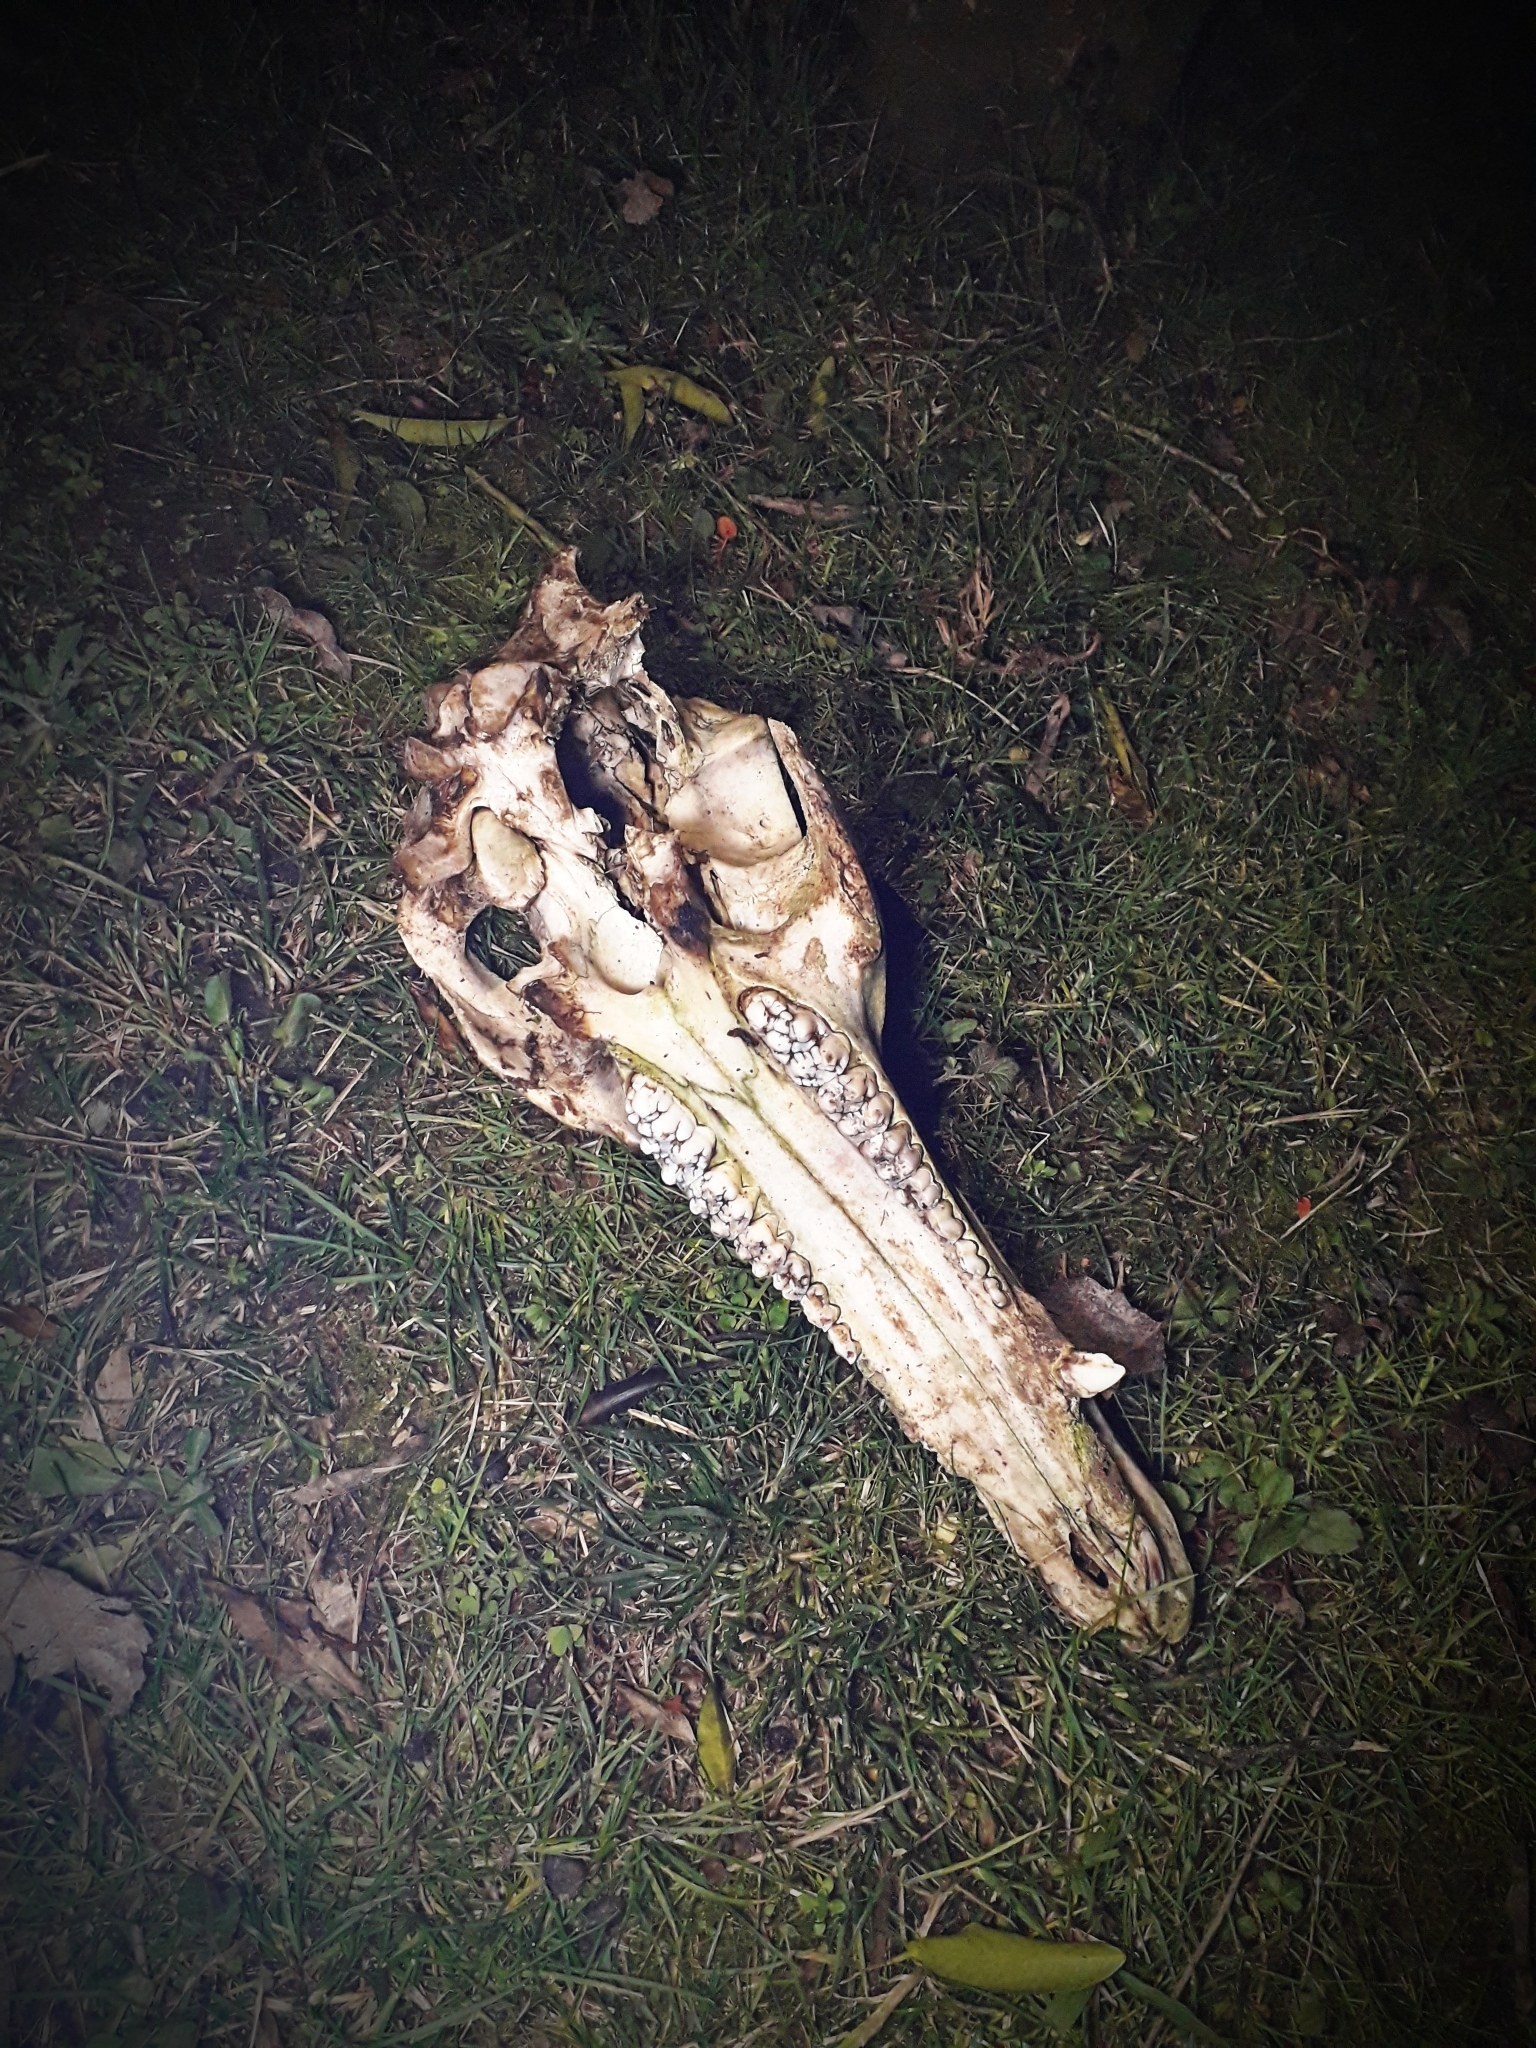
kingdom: Animalia
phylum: Chordata
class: Mammalia
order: Artiodactyla
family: Suidae
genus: Sus
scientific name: Sus scrofa
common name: Wild boar
